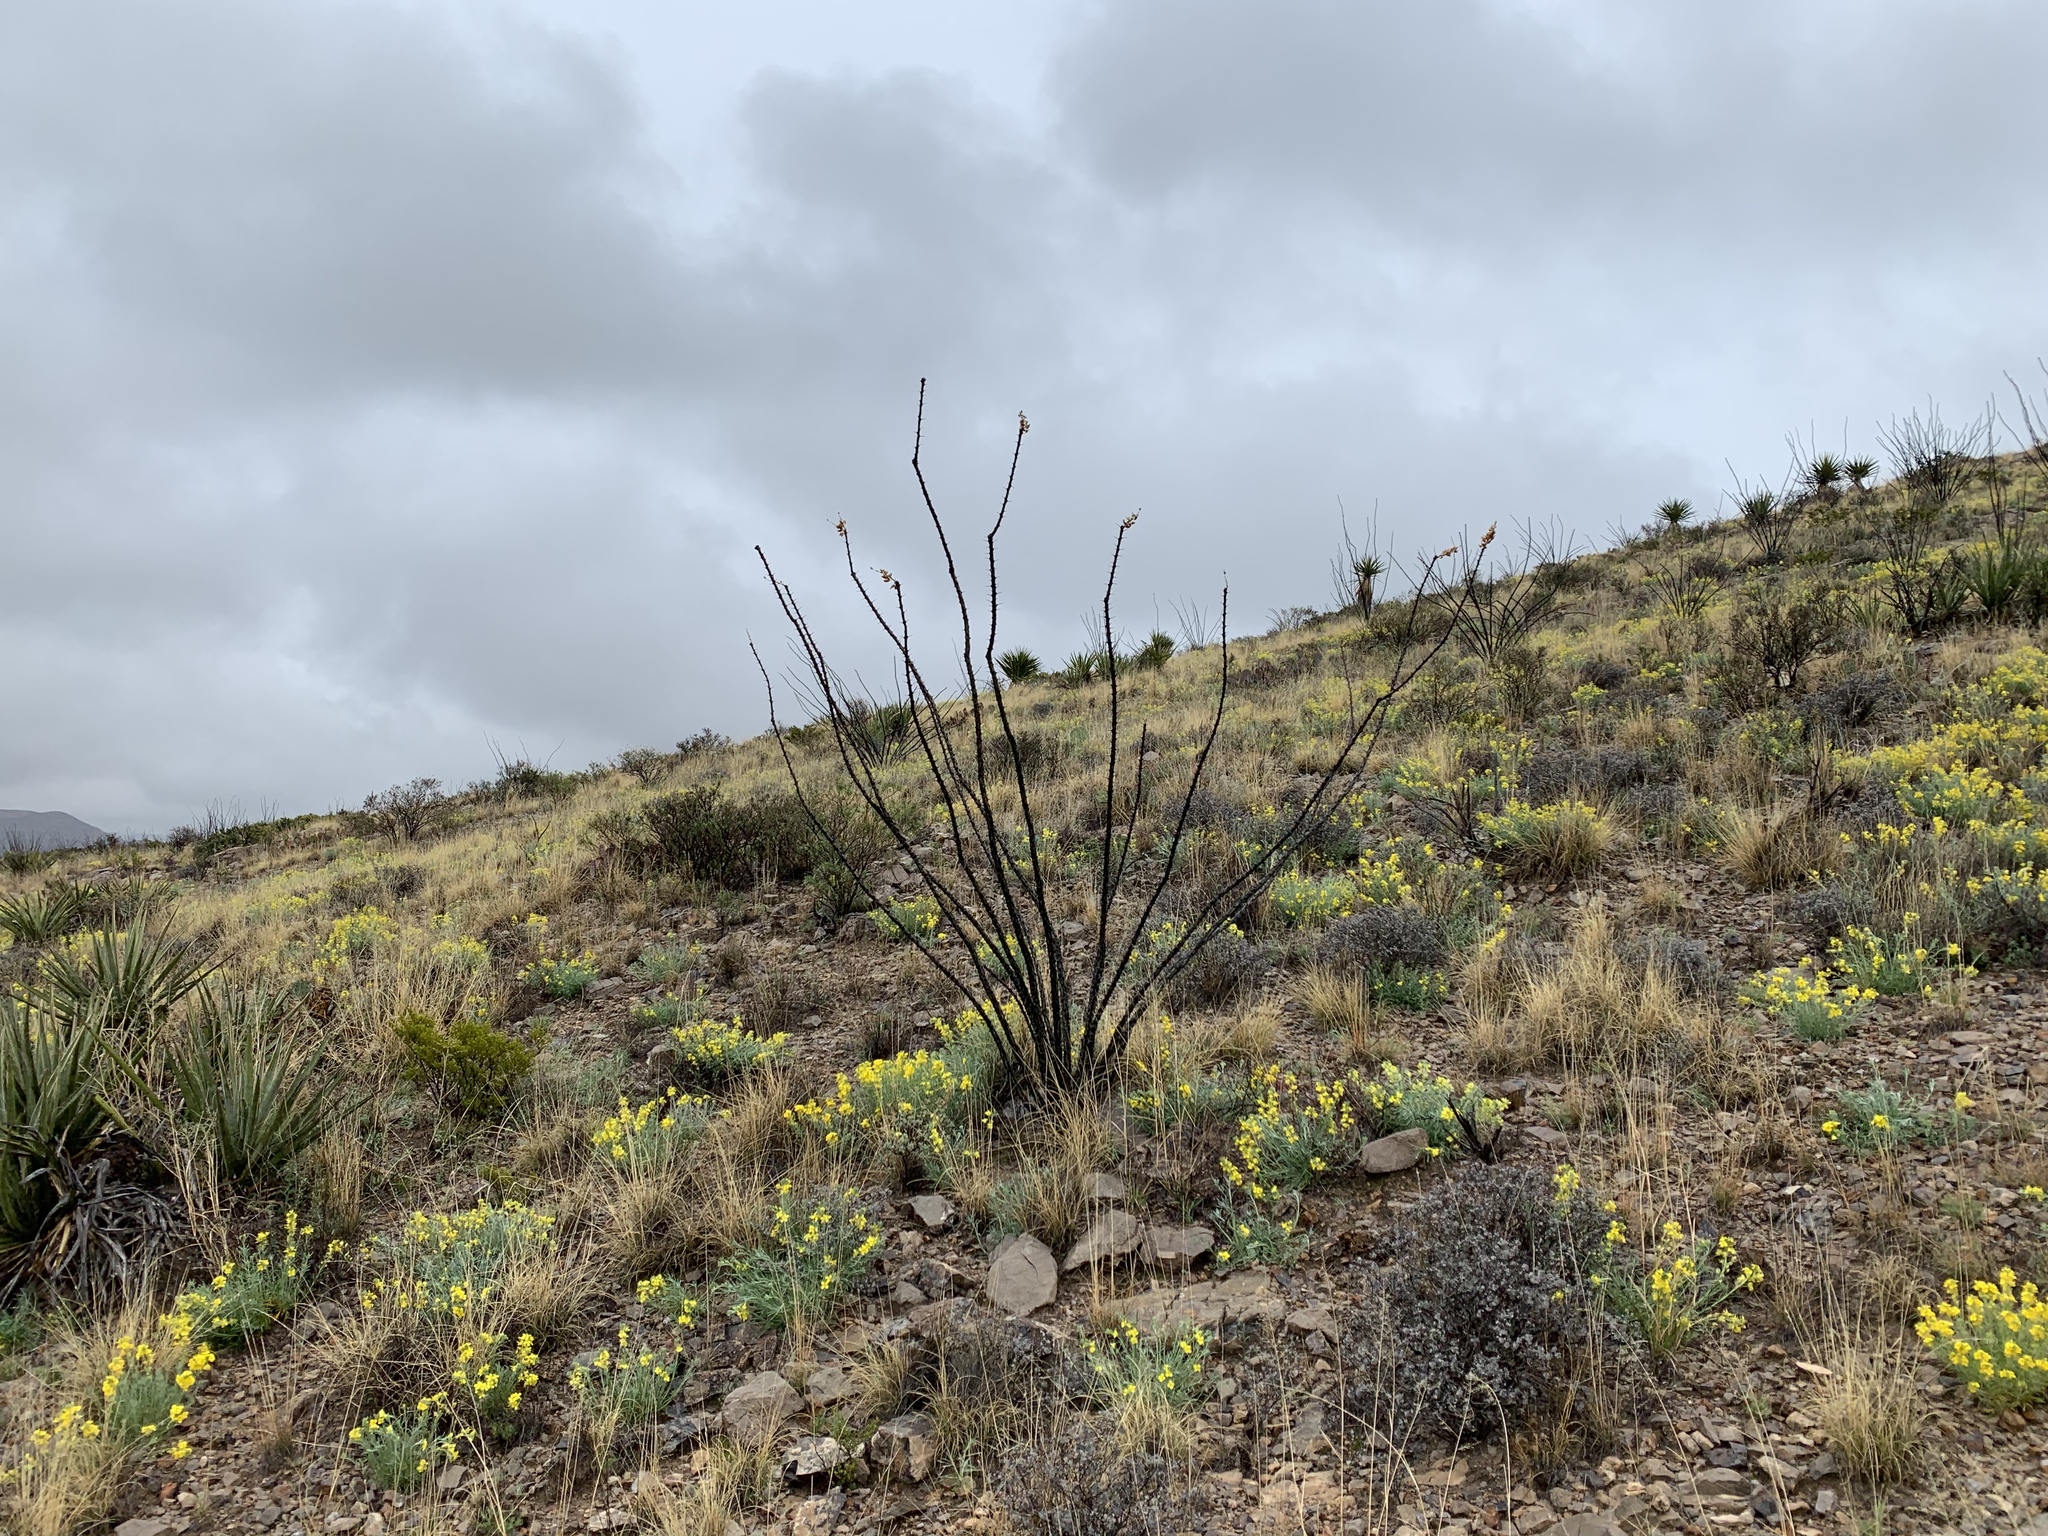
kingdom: Plantae
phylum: Tracheophyta
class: Magnoliopsida
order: Ericales
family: Fouquieriaceae
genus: Fouquieria
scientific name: Fouquieria splendens
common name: Vine-cactus
